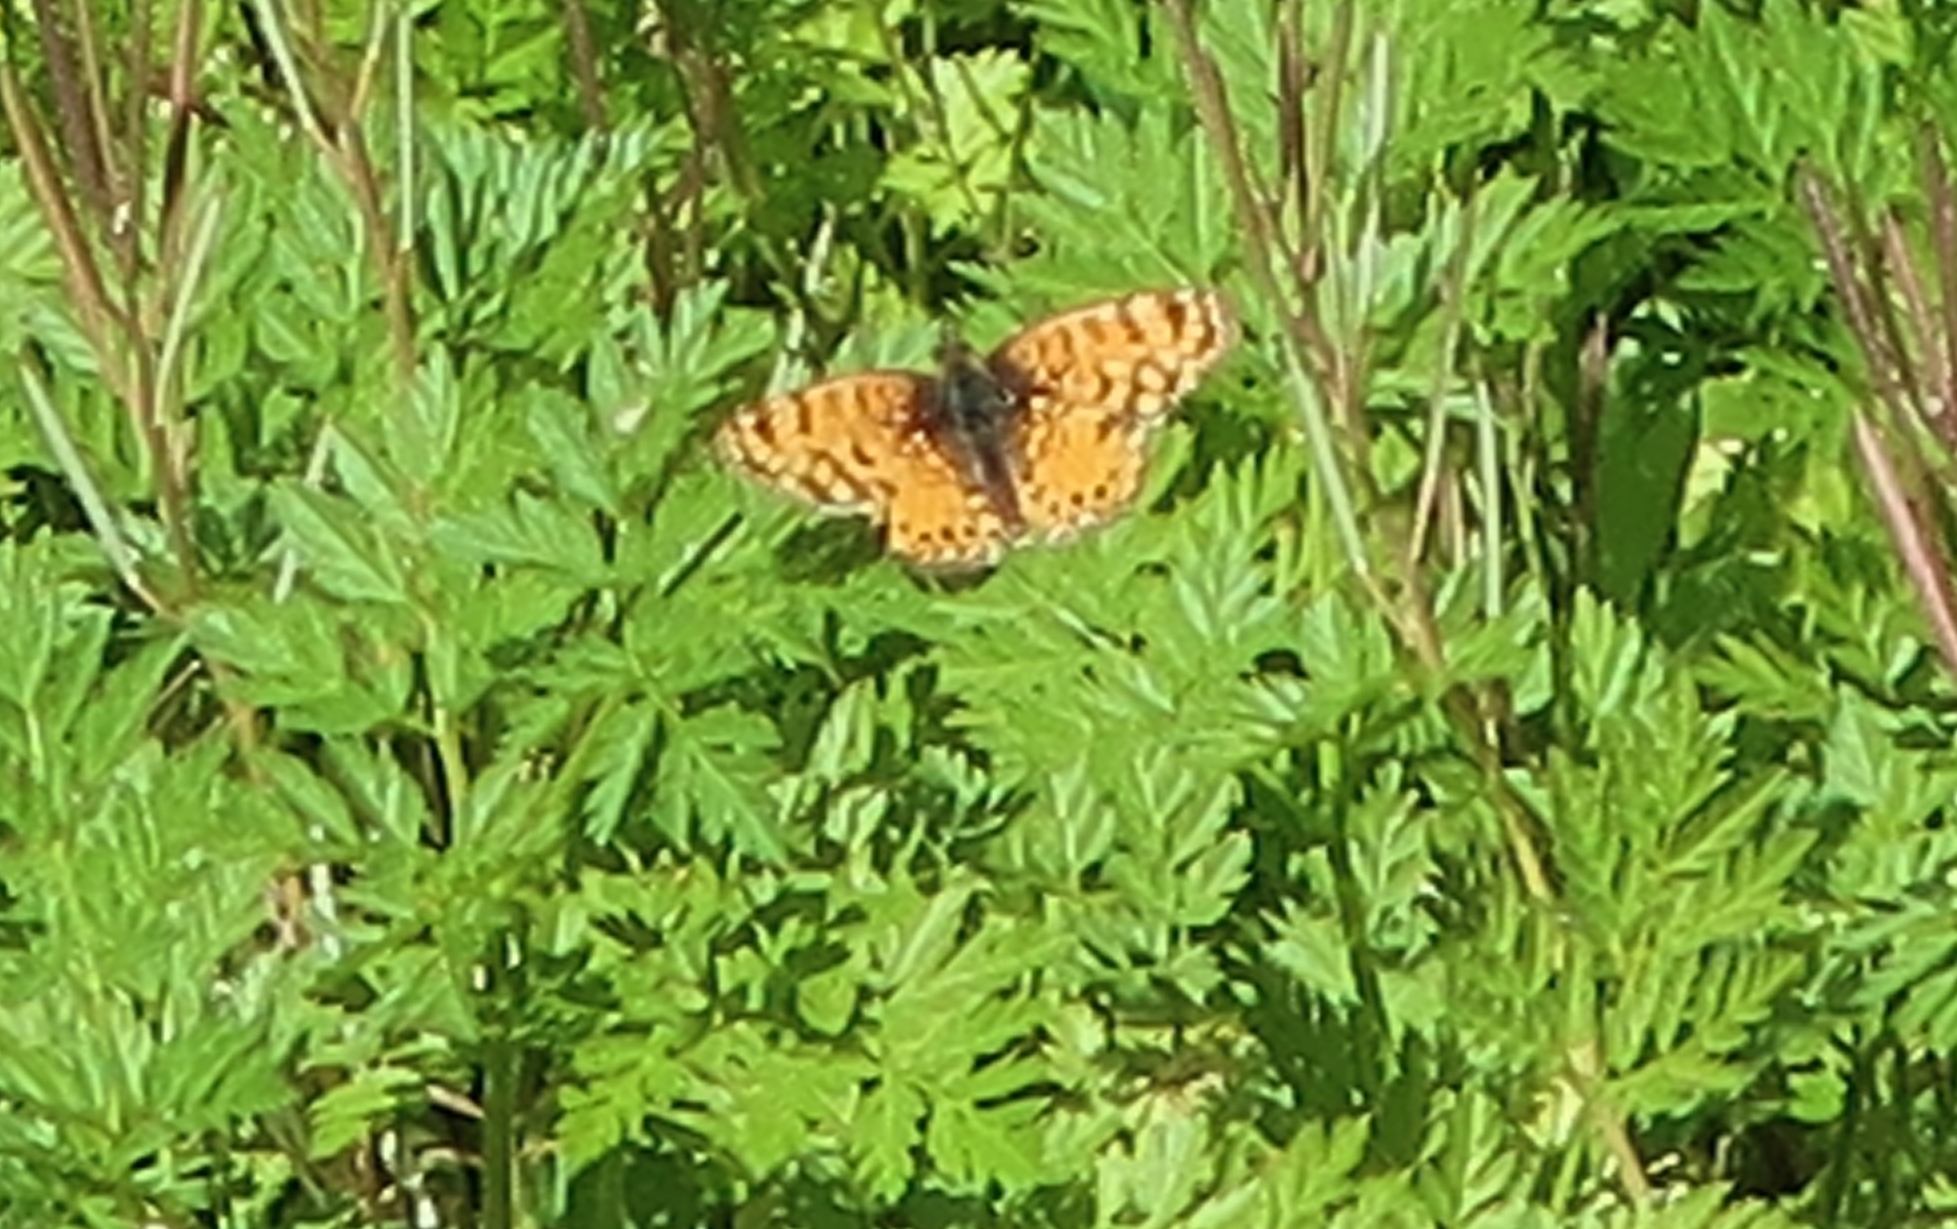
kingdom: Animalia
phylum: Arthropoda
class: Insecta
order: Lepidoptera
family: Nymphalidae
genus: Eresia
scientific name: Eresia aveyrona
